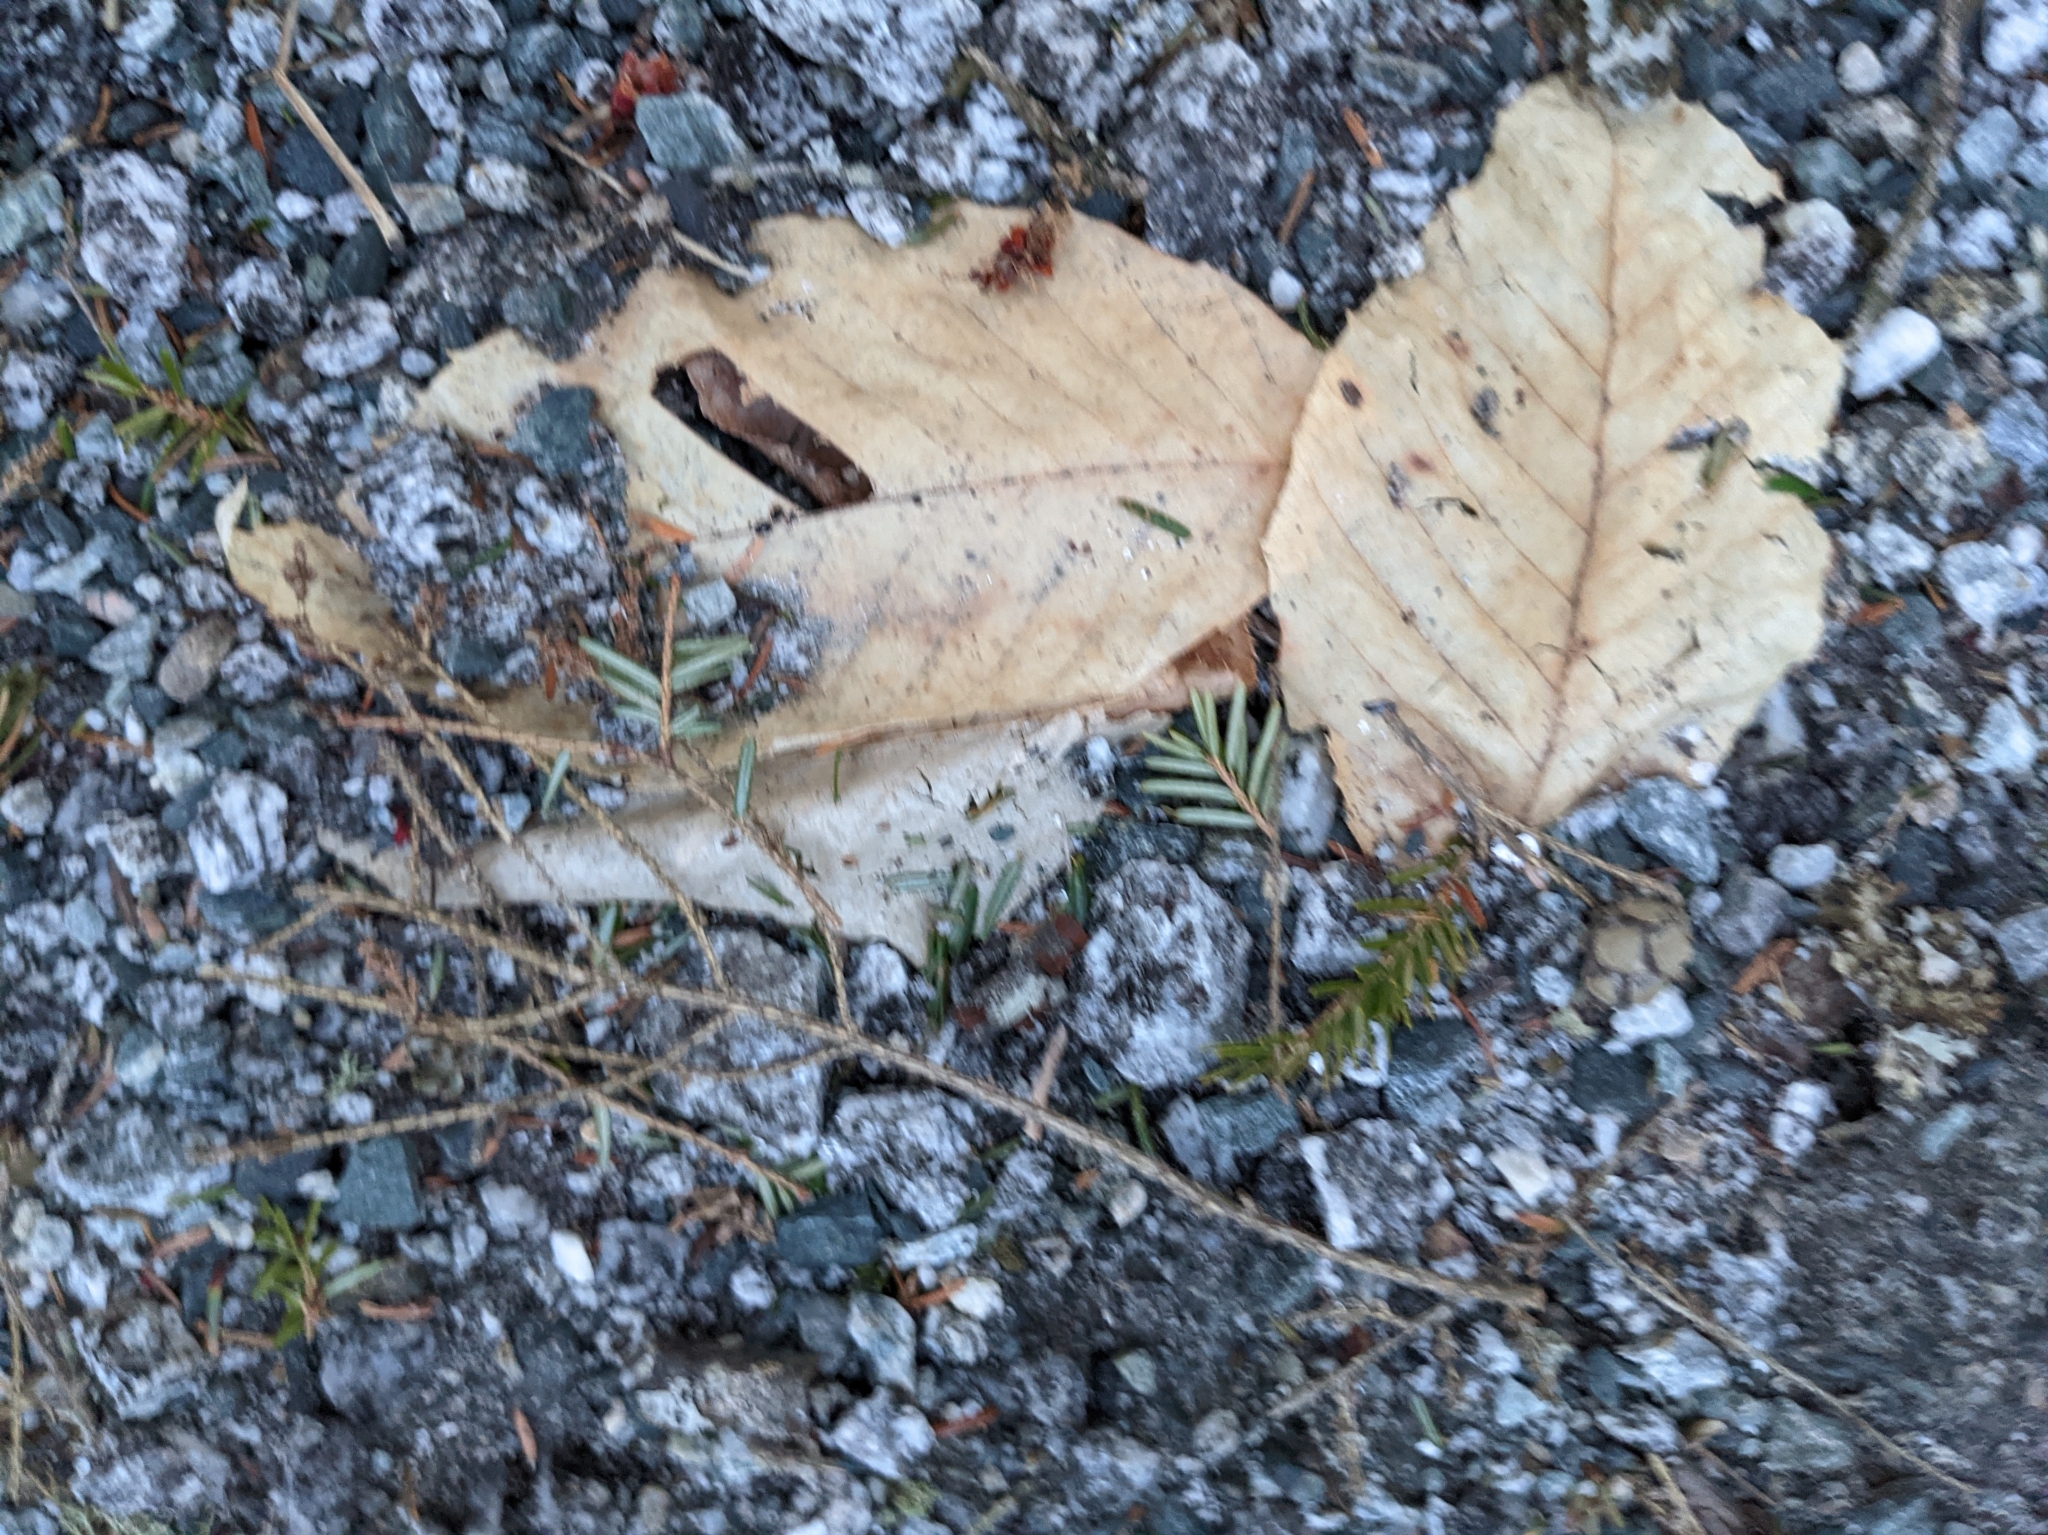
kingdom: Plantae
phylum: Tracheophyta
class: Magnoliopsida
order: Fagales
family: Fagaceae
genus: Fagus
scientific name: Fagus grandifolia
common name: American beech
